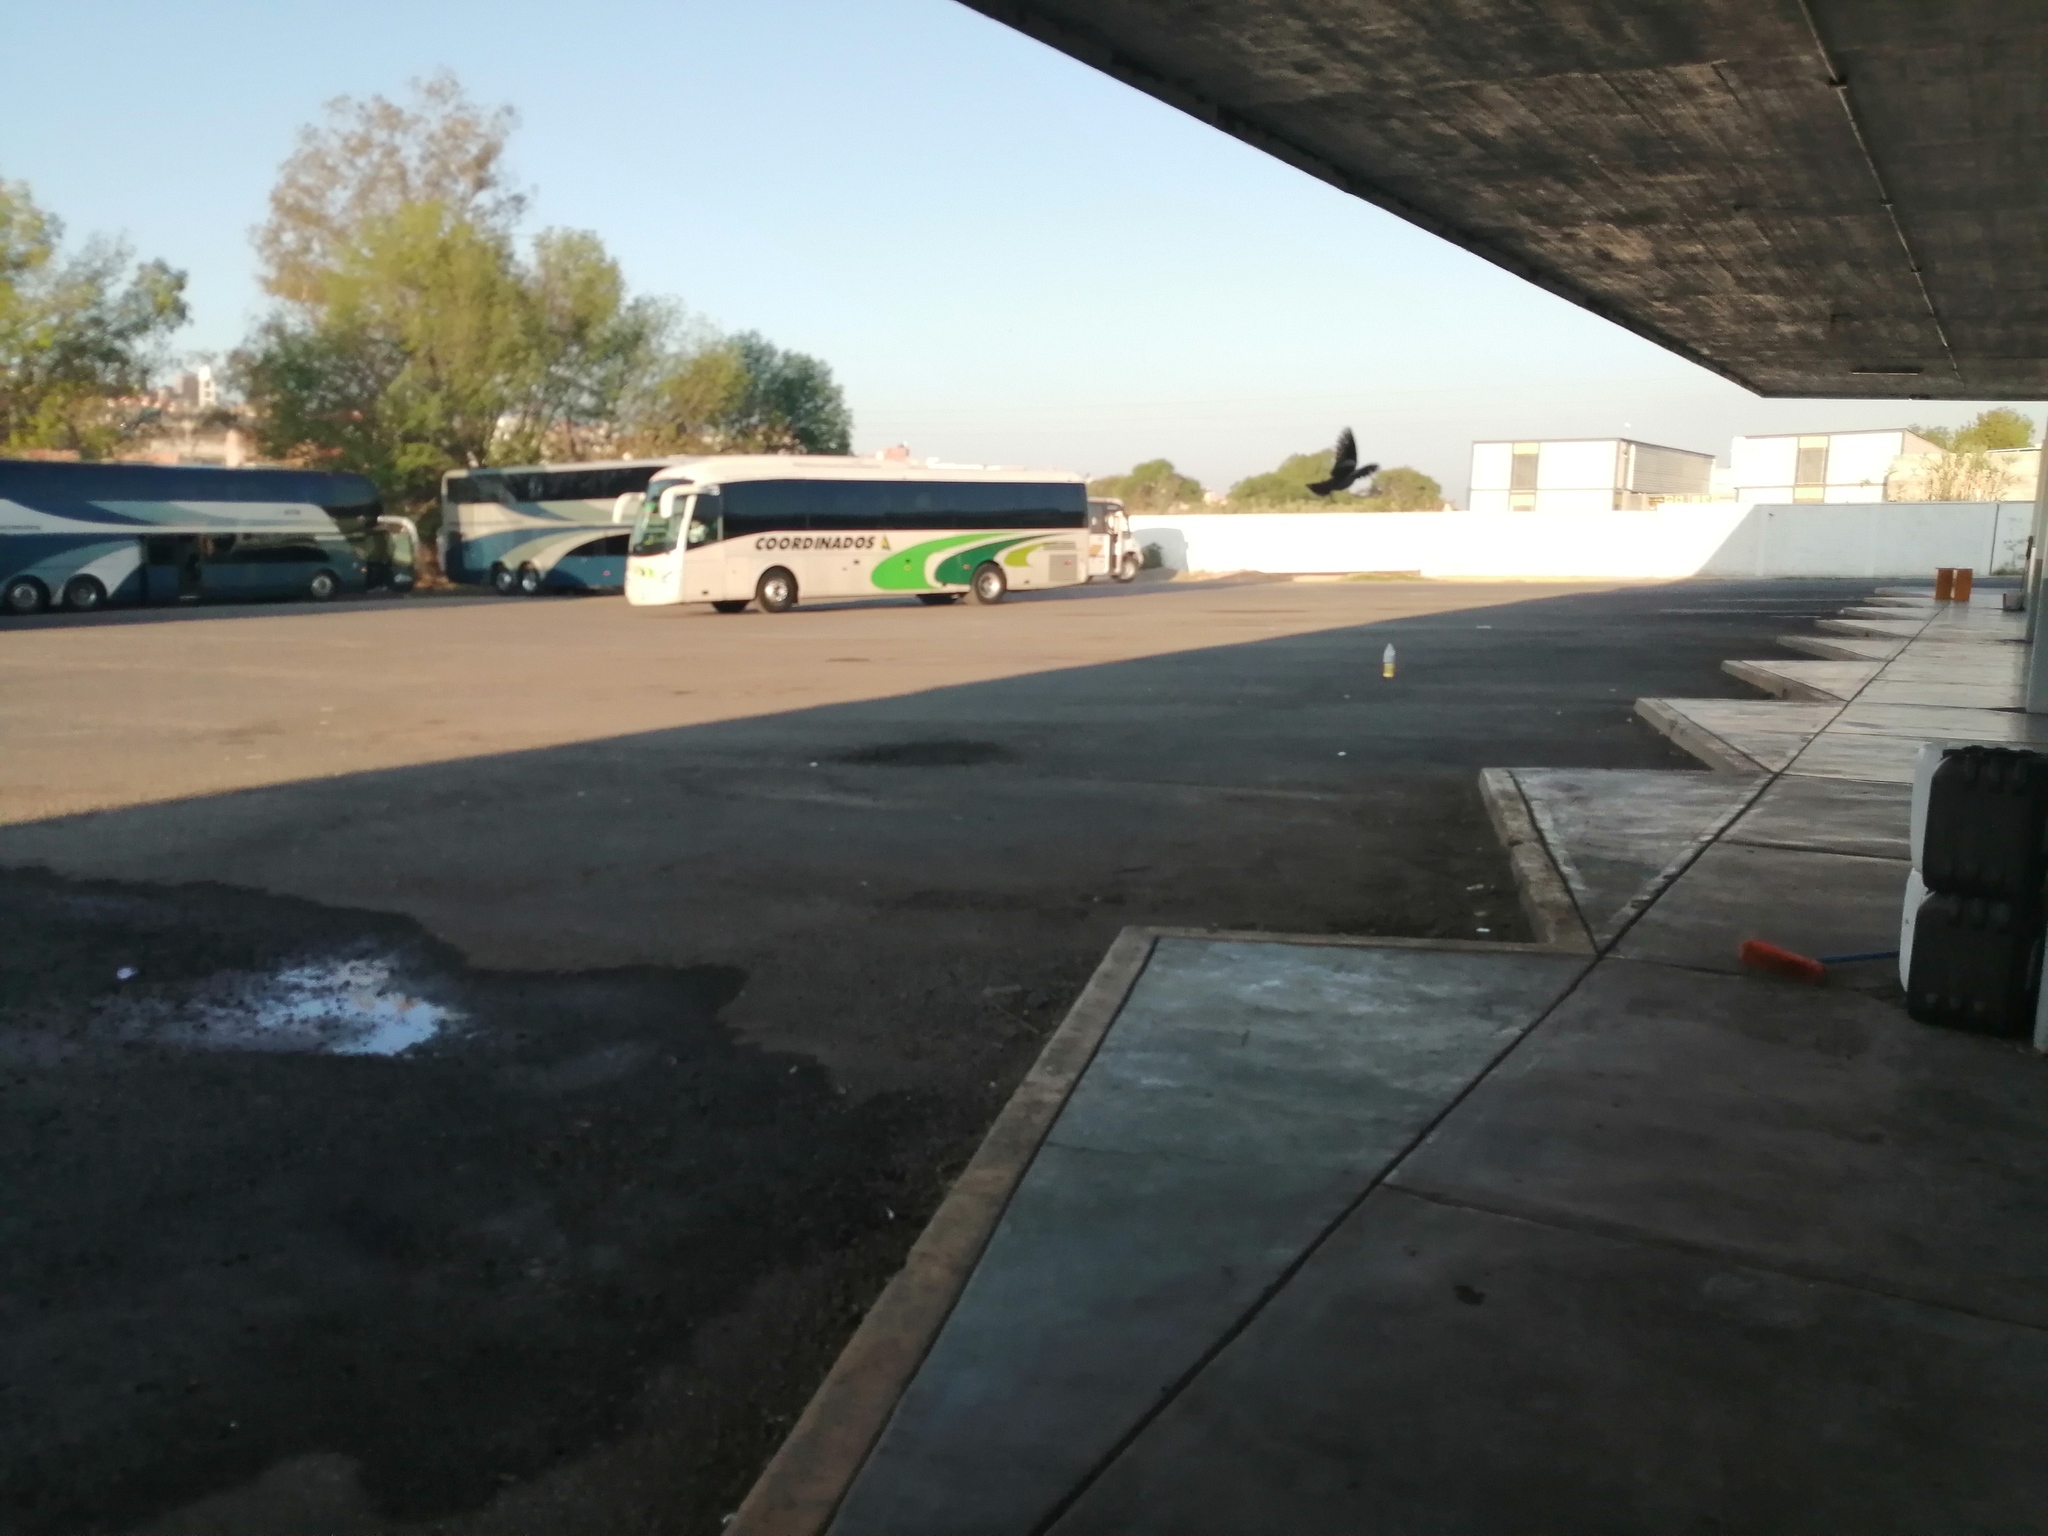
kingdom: Animalia
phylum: Chordata
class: Aves
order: Columbiformes
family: Columbidae
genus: Zenaida
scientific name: Zenaida asiatica
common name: White-winged dove
